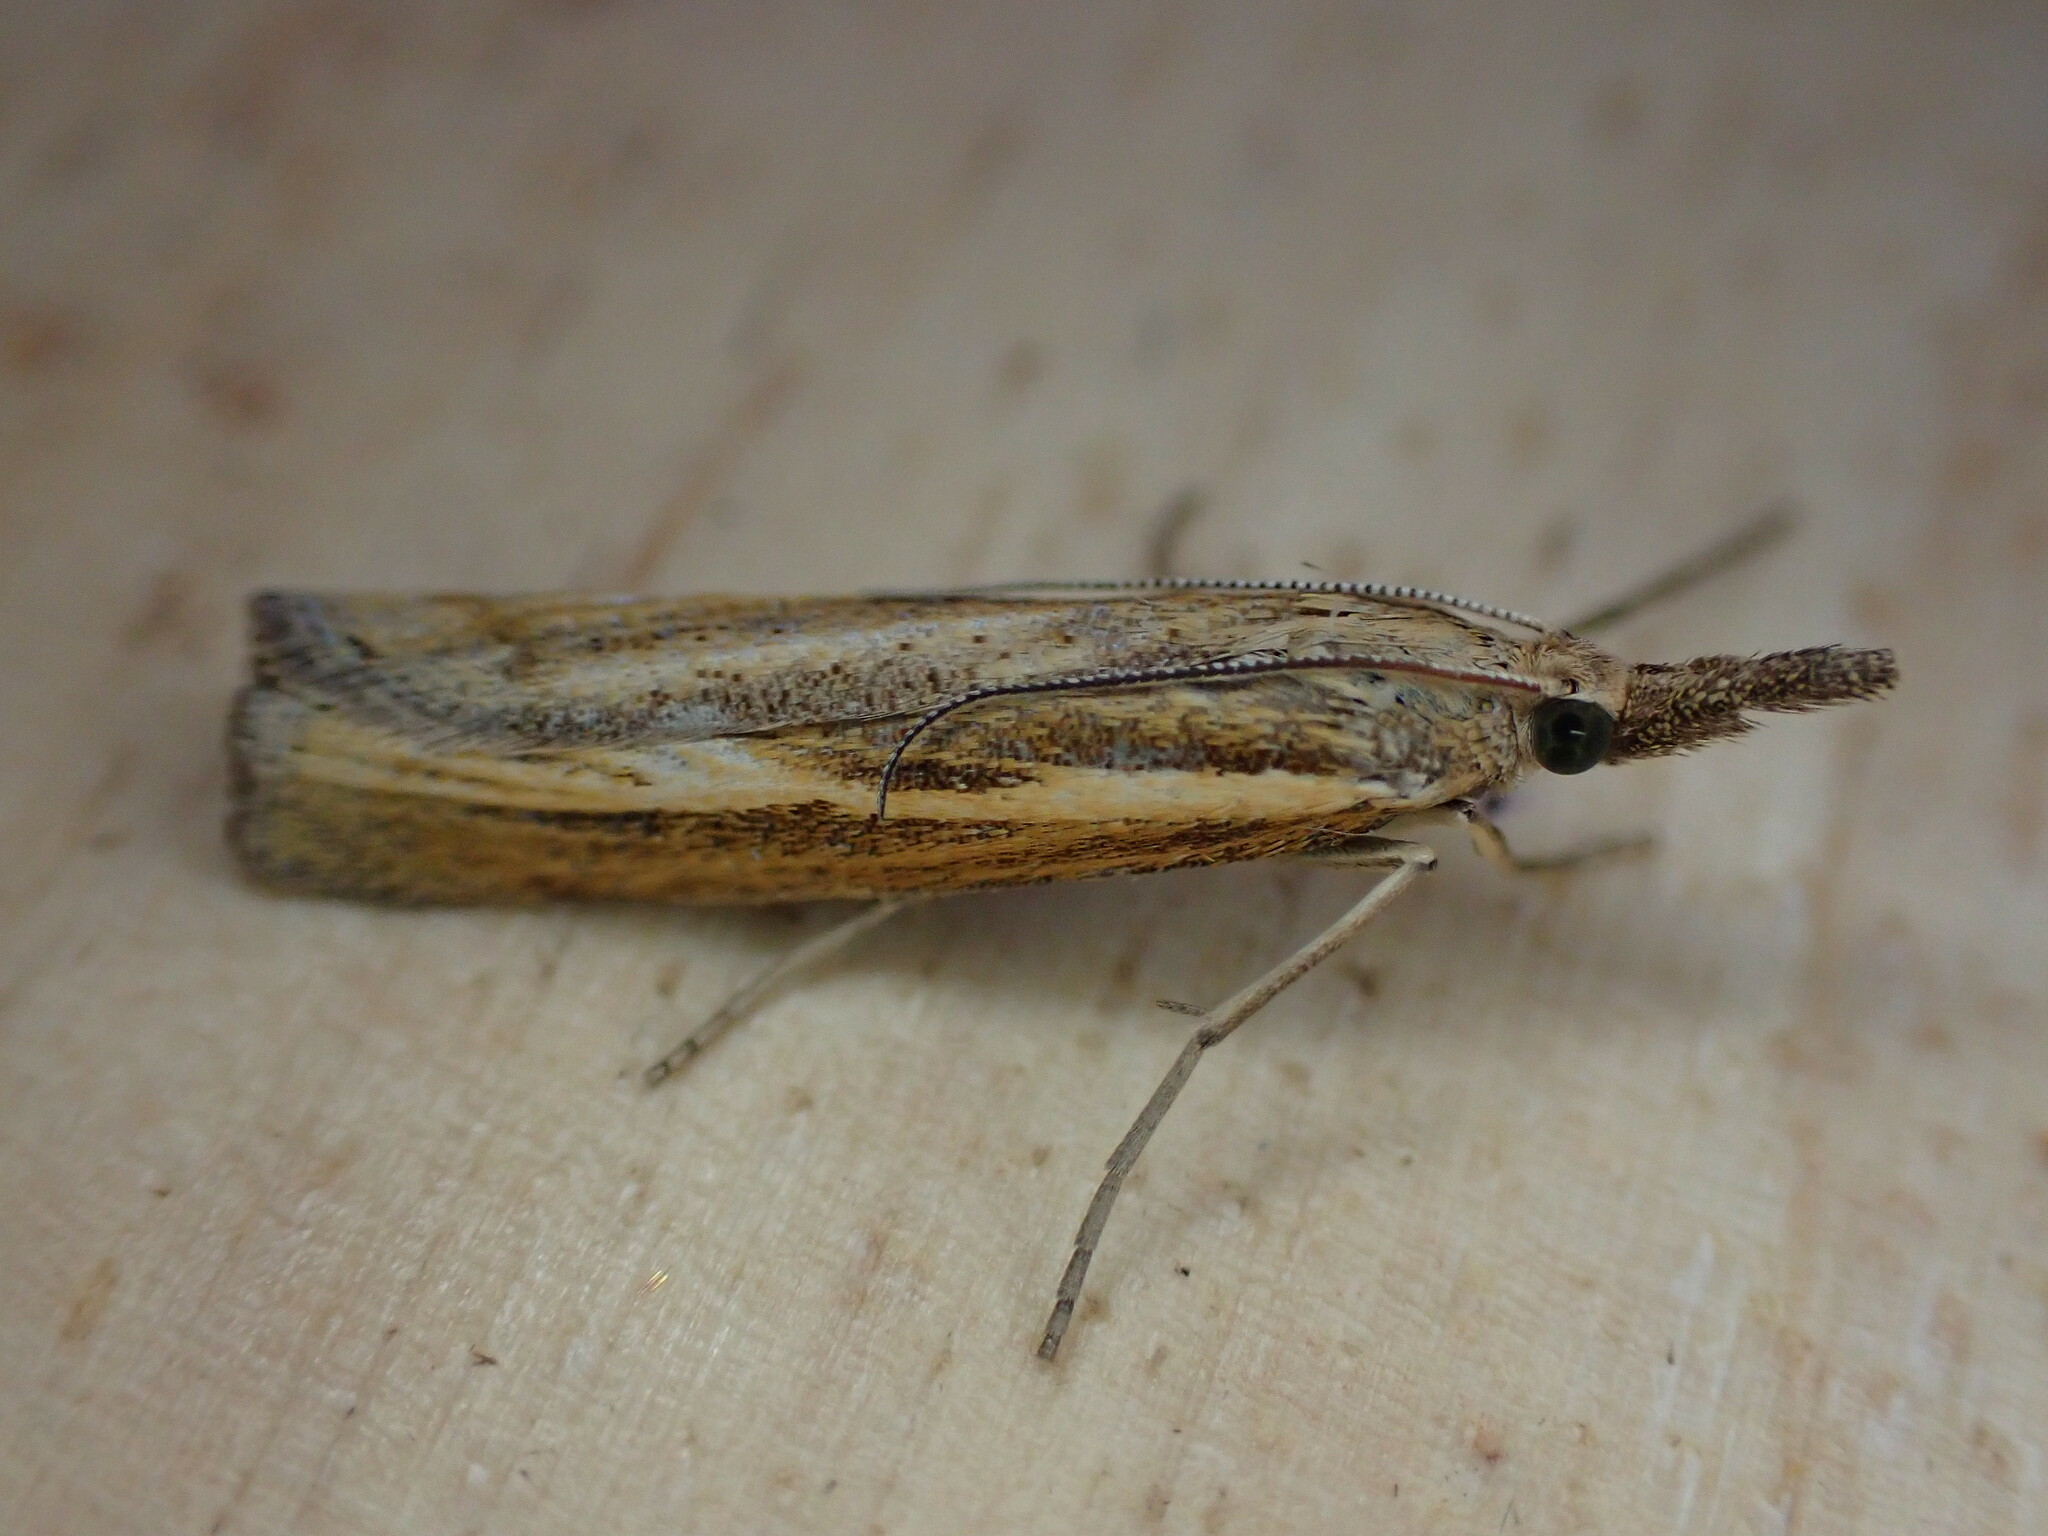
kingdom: Animalia
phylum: Arthropoda
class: Insecta
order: Lepidoptera
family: Crambidae
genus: Agriphila
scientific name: Agriphila tristellus
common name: Common grass-veneer
